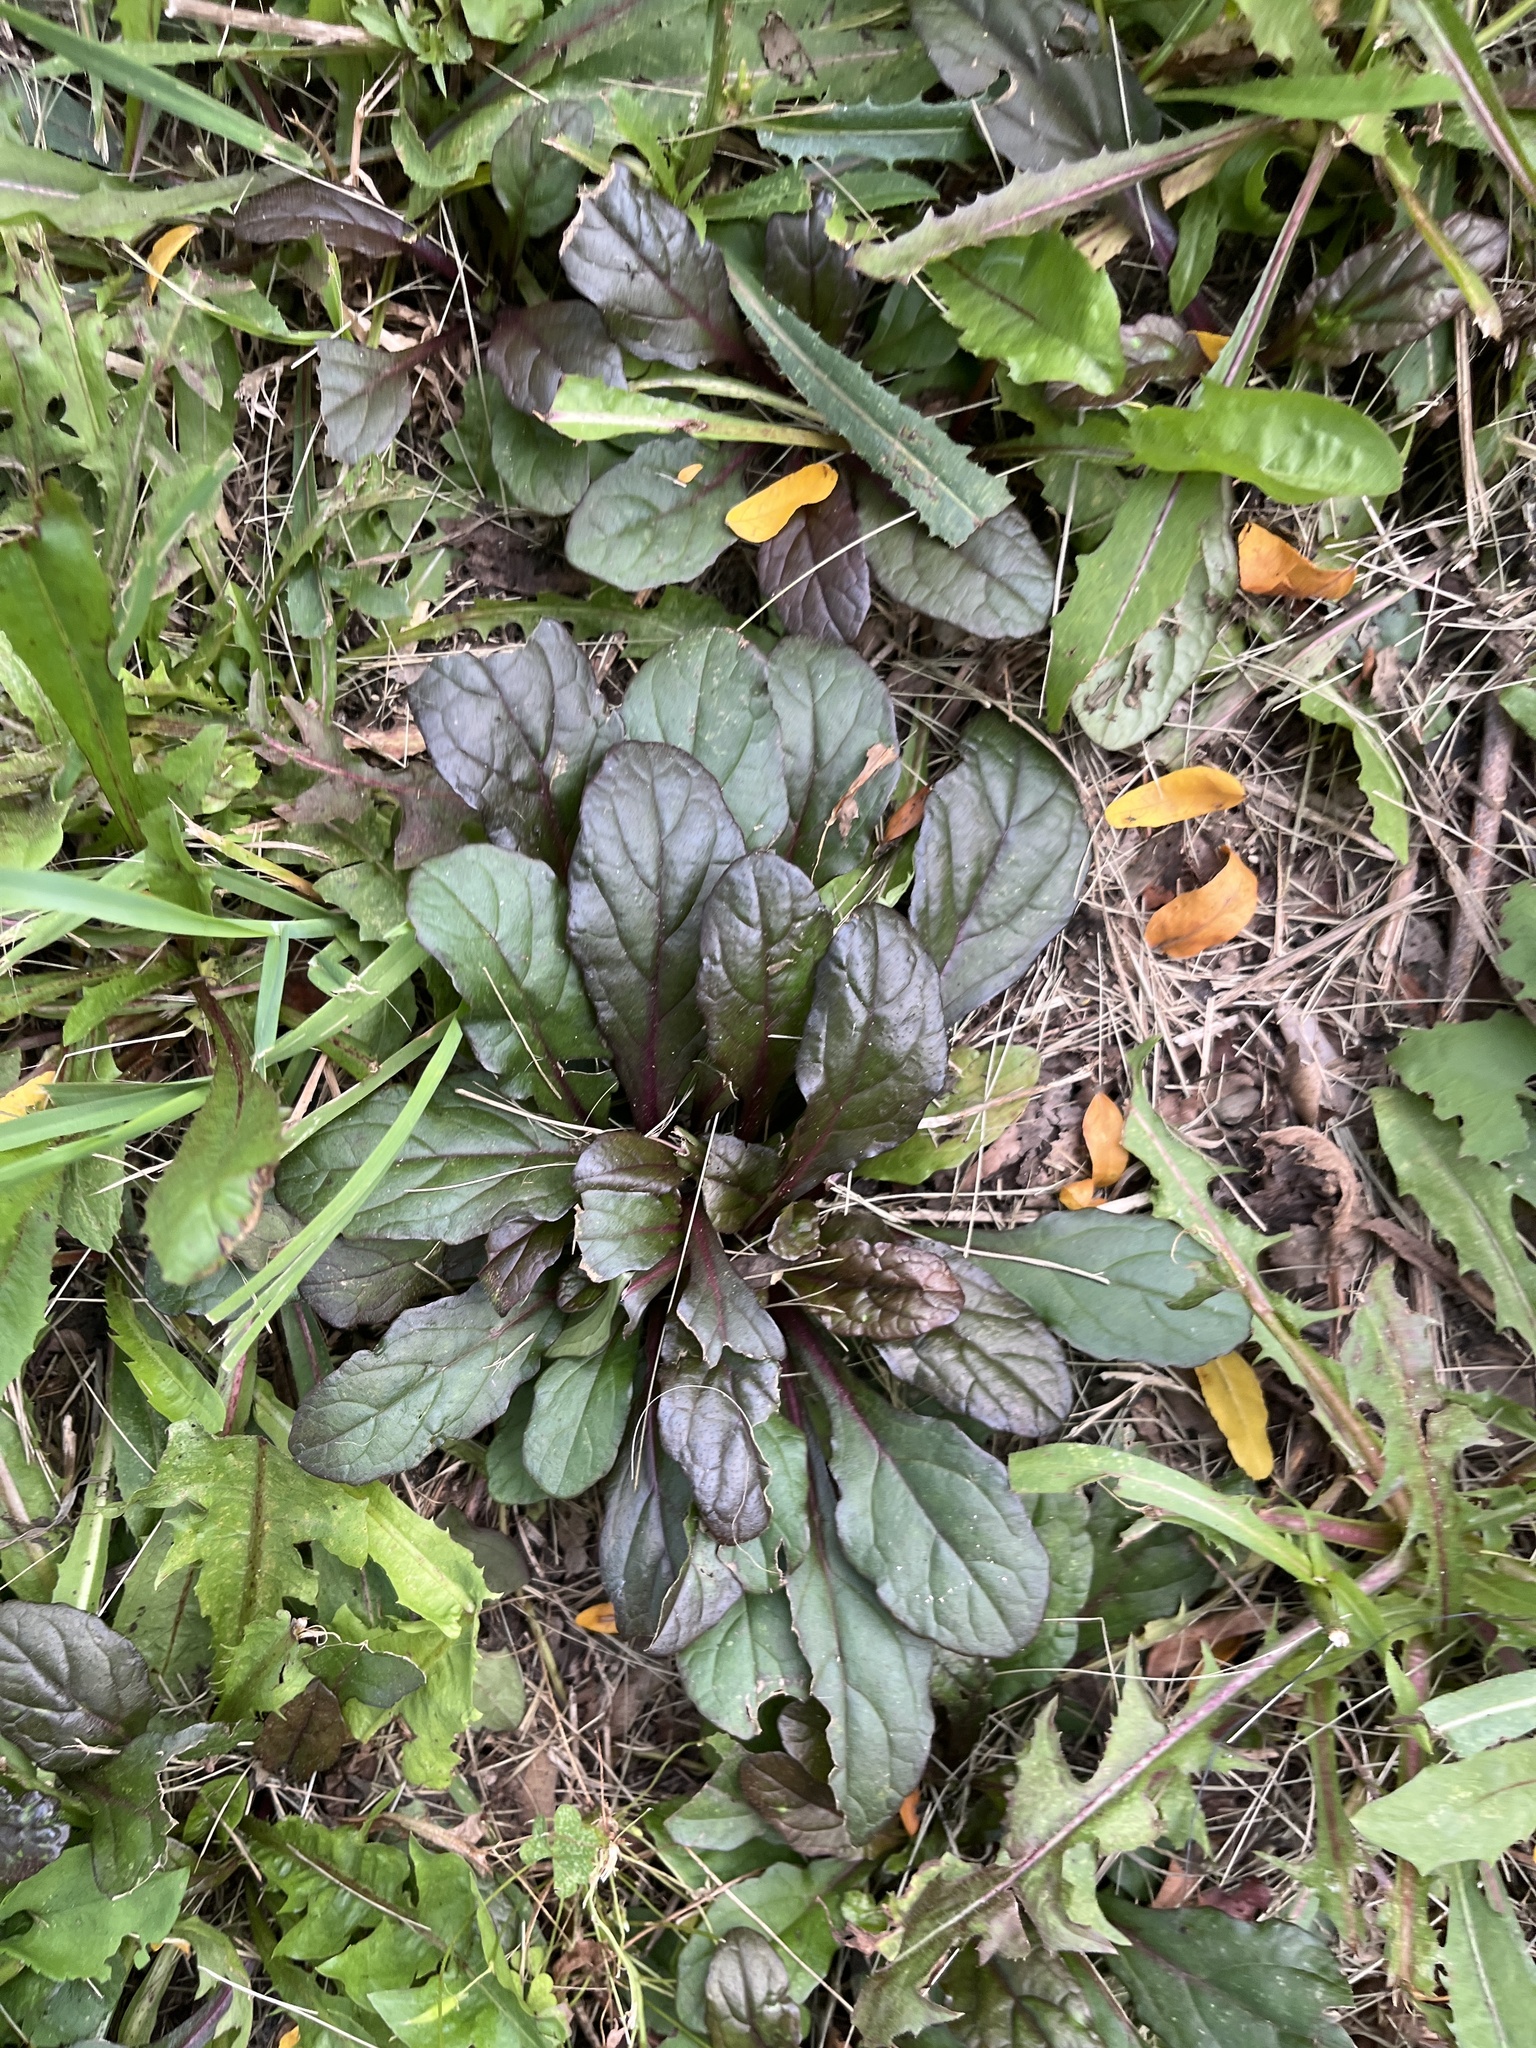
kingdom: Plantae
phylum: Tracheophyta
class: Magnoliopsida
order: Lamiales
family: Lamiaceae
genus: Ajuga
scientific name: Ajuga reptans
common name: Bugle
